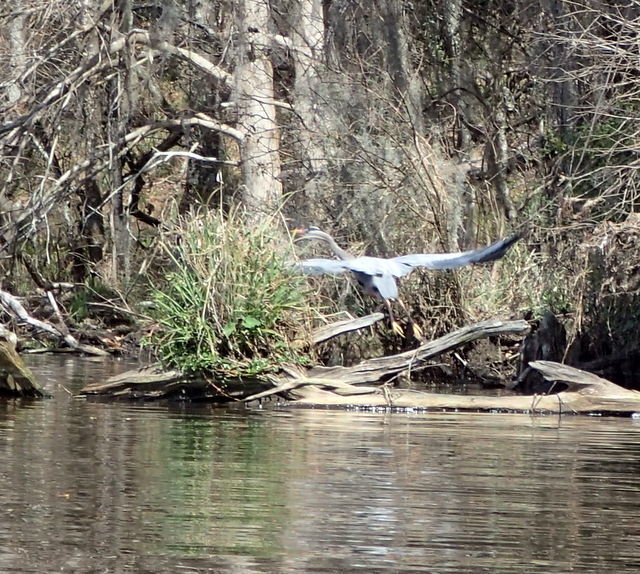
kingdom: Animalia
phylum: Chordata
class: Aves
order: Pelecaniformes
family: Ardeidae
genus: Ardea
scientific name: Ardea herodias
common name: Great blue heron
